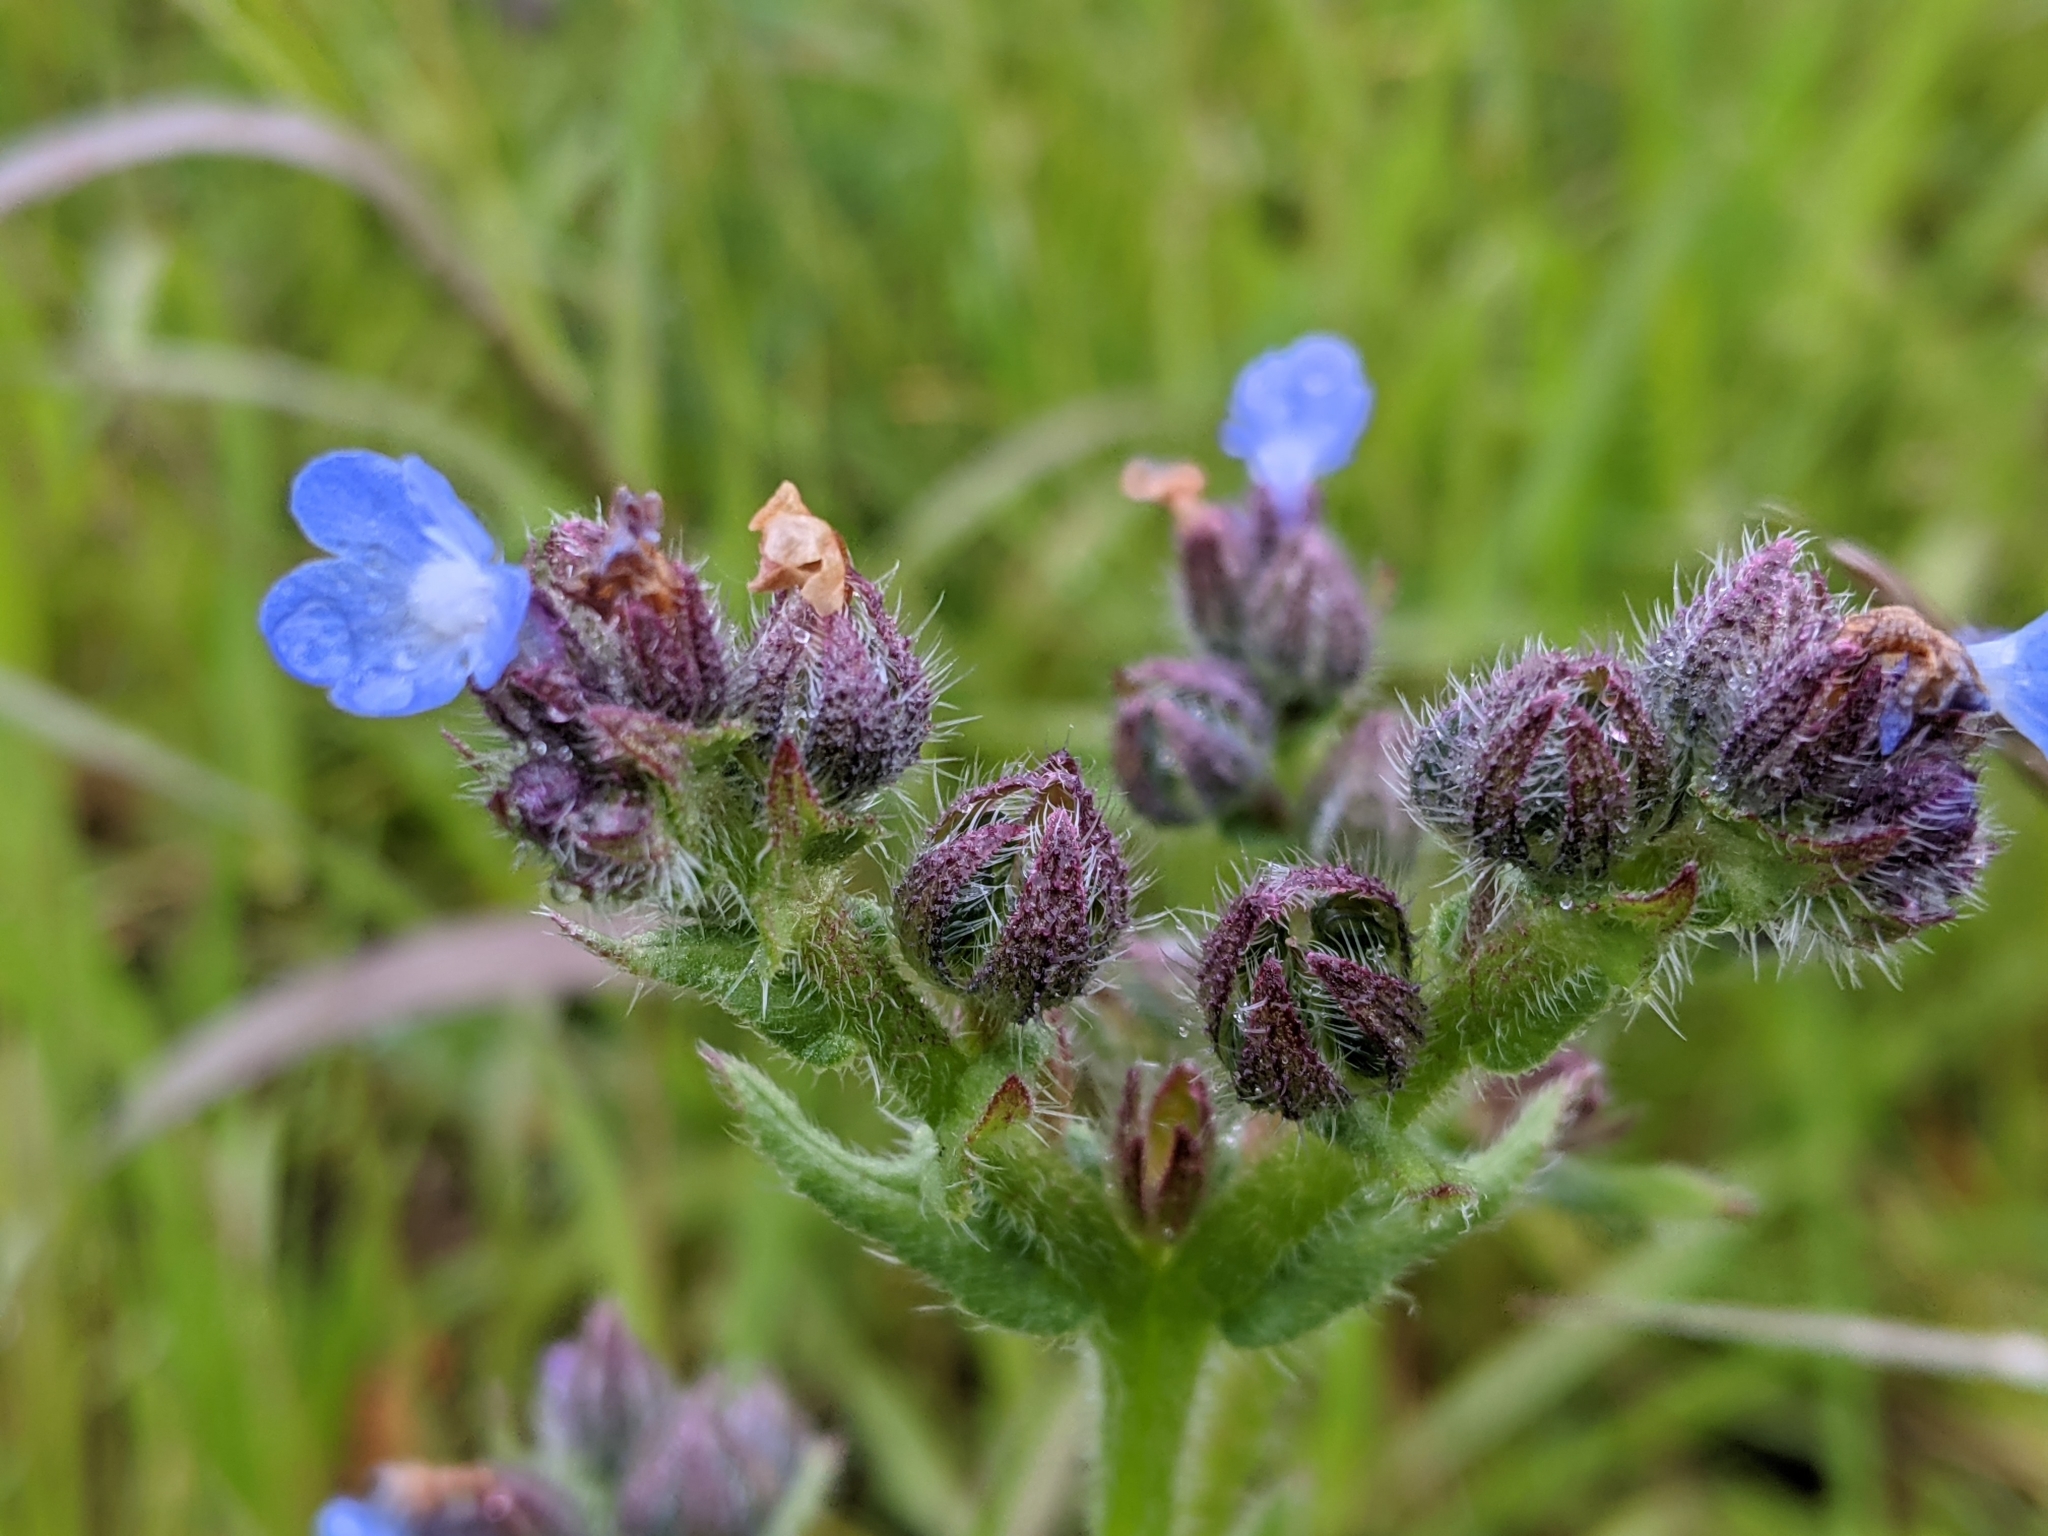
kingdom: Plantae
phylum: Tracheophyta
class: Magnoliopsida
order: Boraginales
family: Boraginaceae
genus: Lycopsis
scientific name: Lycopsis arvensis
